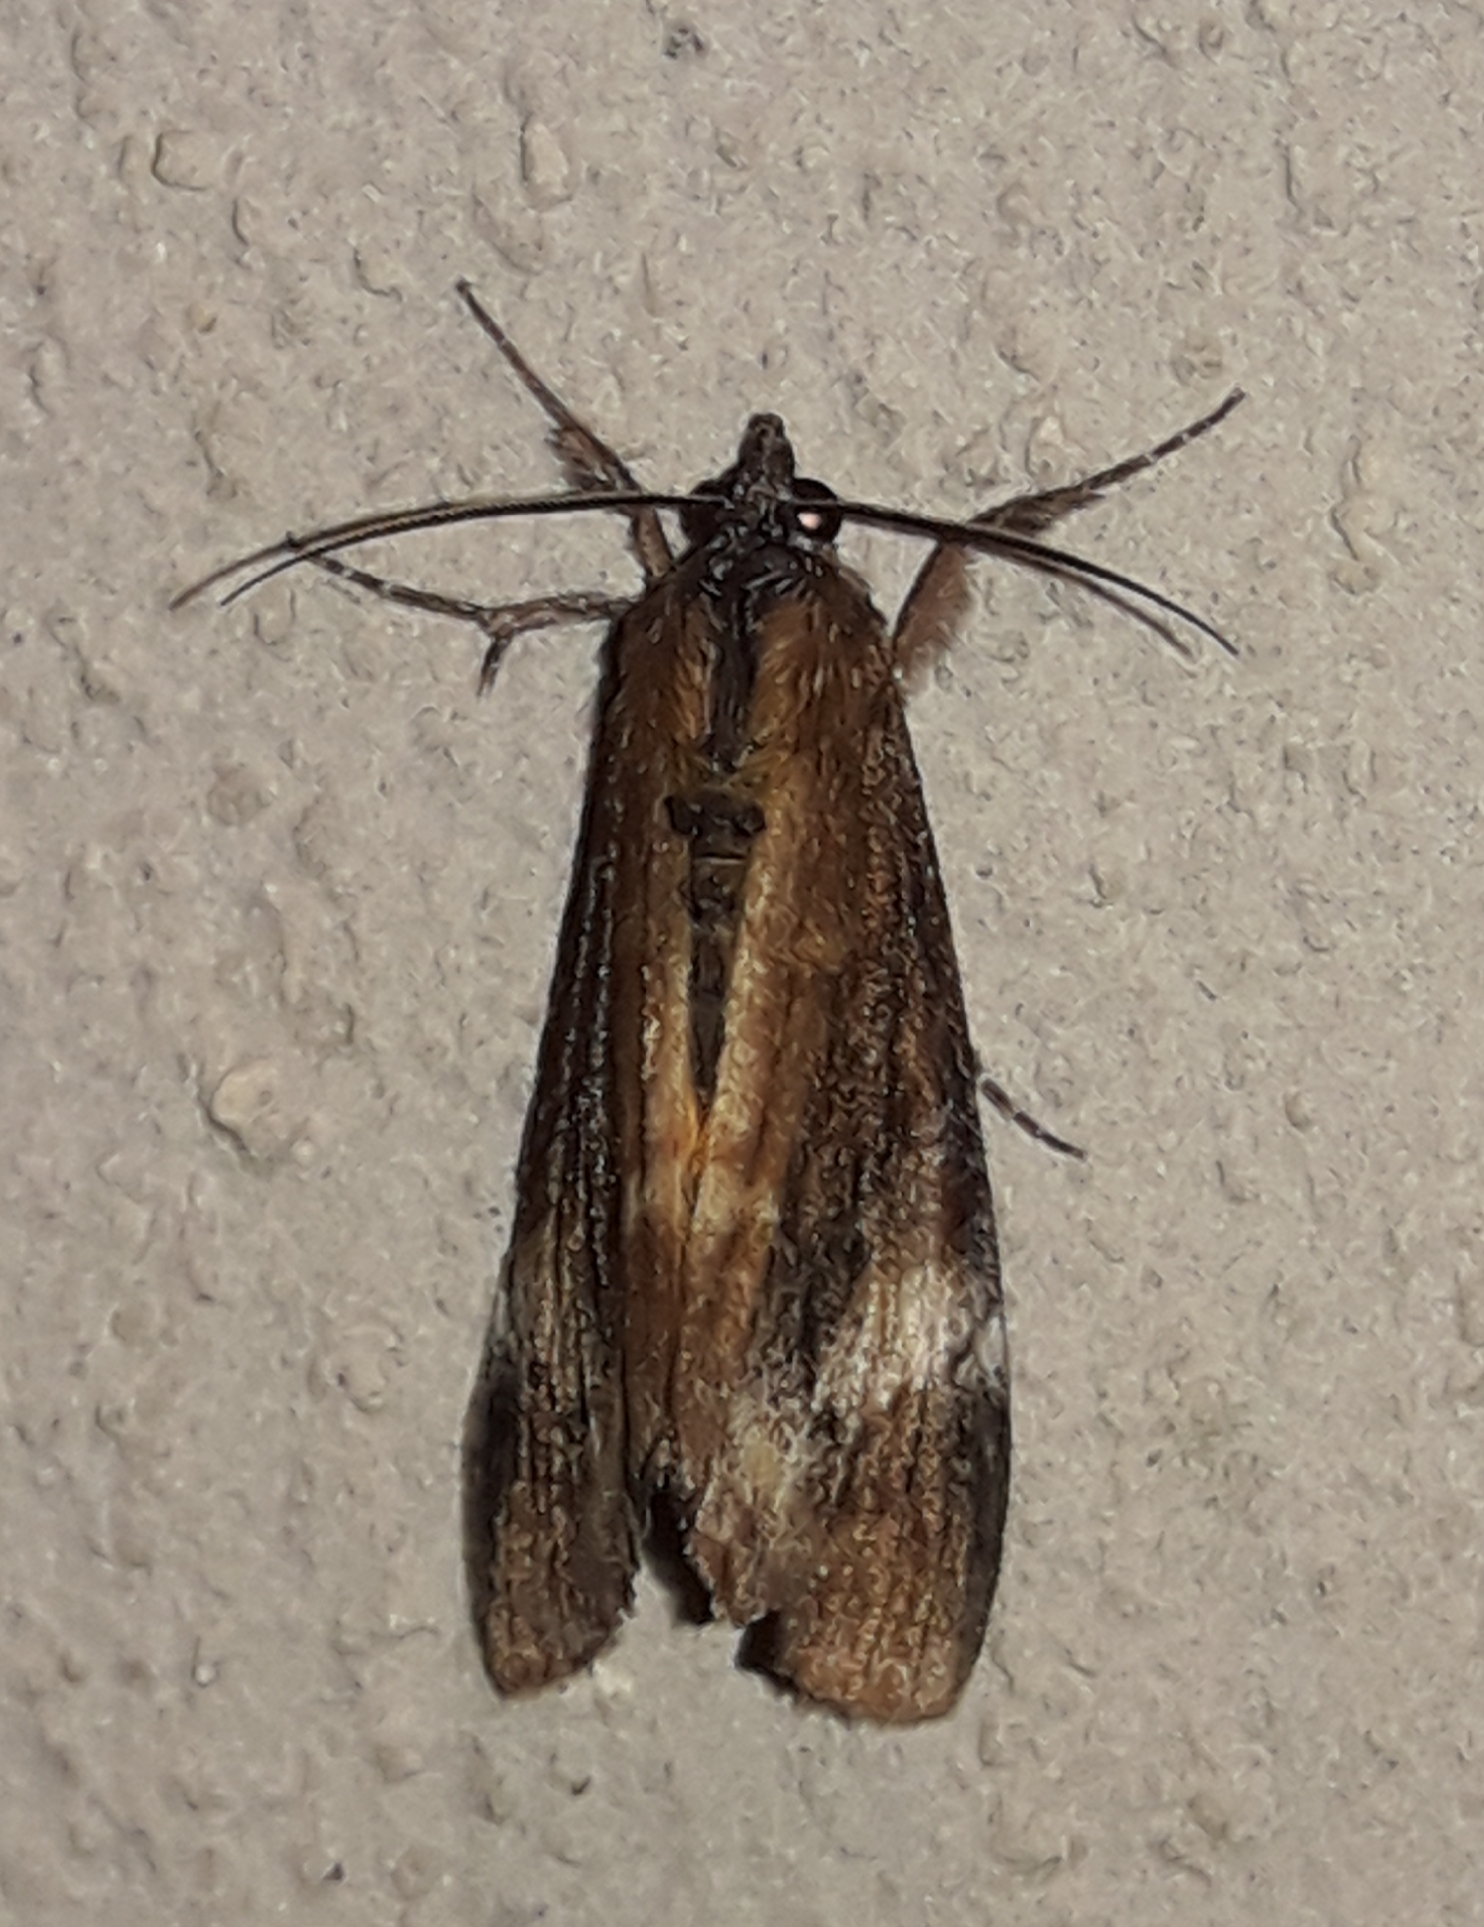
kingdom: Animalia
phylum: Arthropoda
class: Insecta
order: Lepidoptera
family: Noctuidae
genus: Gerra
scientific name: Gerra aelia
